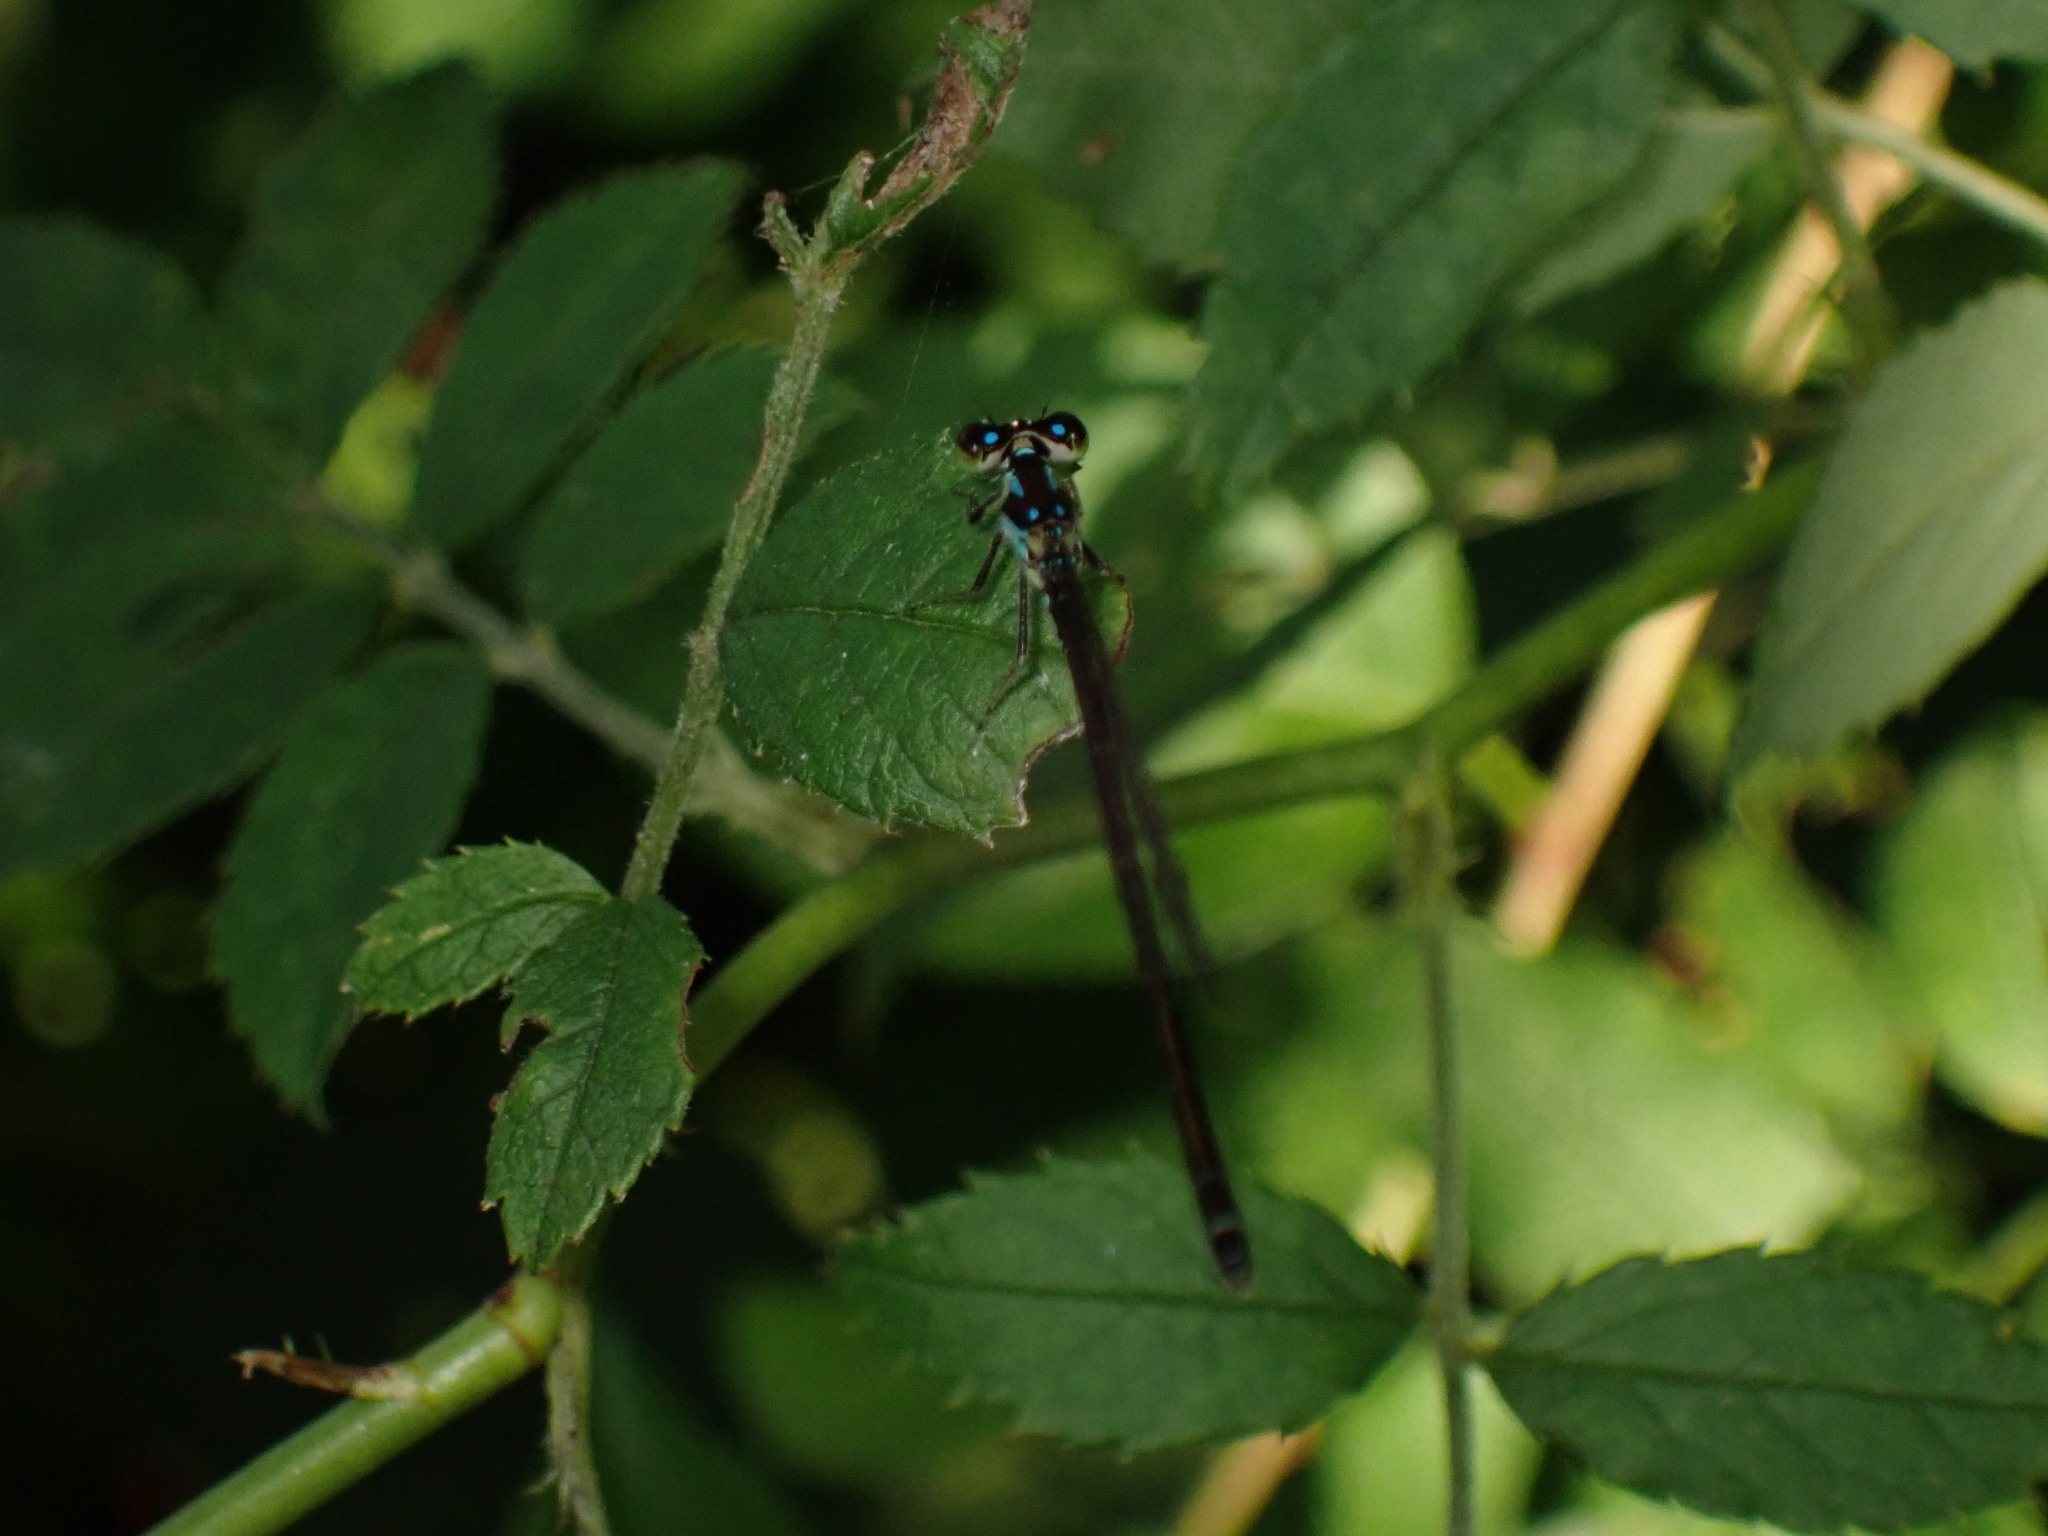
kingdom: Animalia
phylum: Arthropoda
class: Insecta
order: Odonata
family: Coenagrionidae
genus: Ischnura
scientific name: Ischnura posita
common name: Fragile forktail
